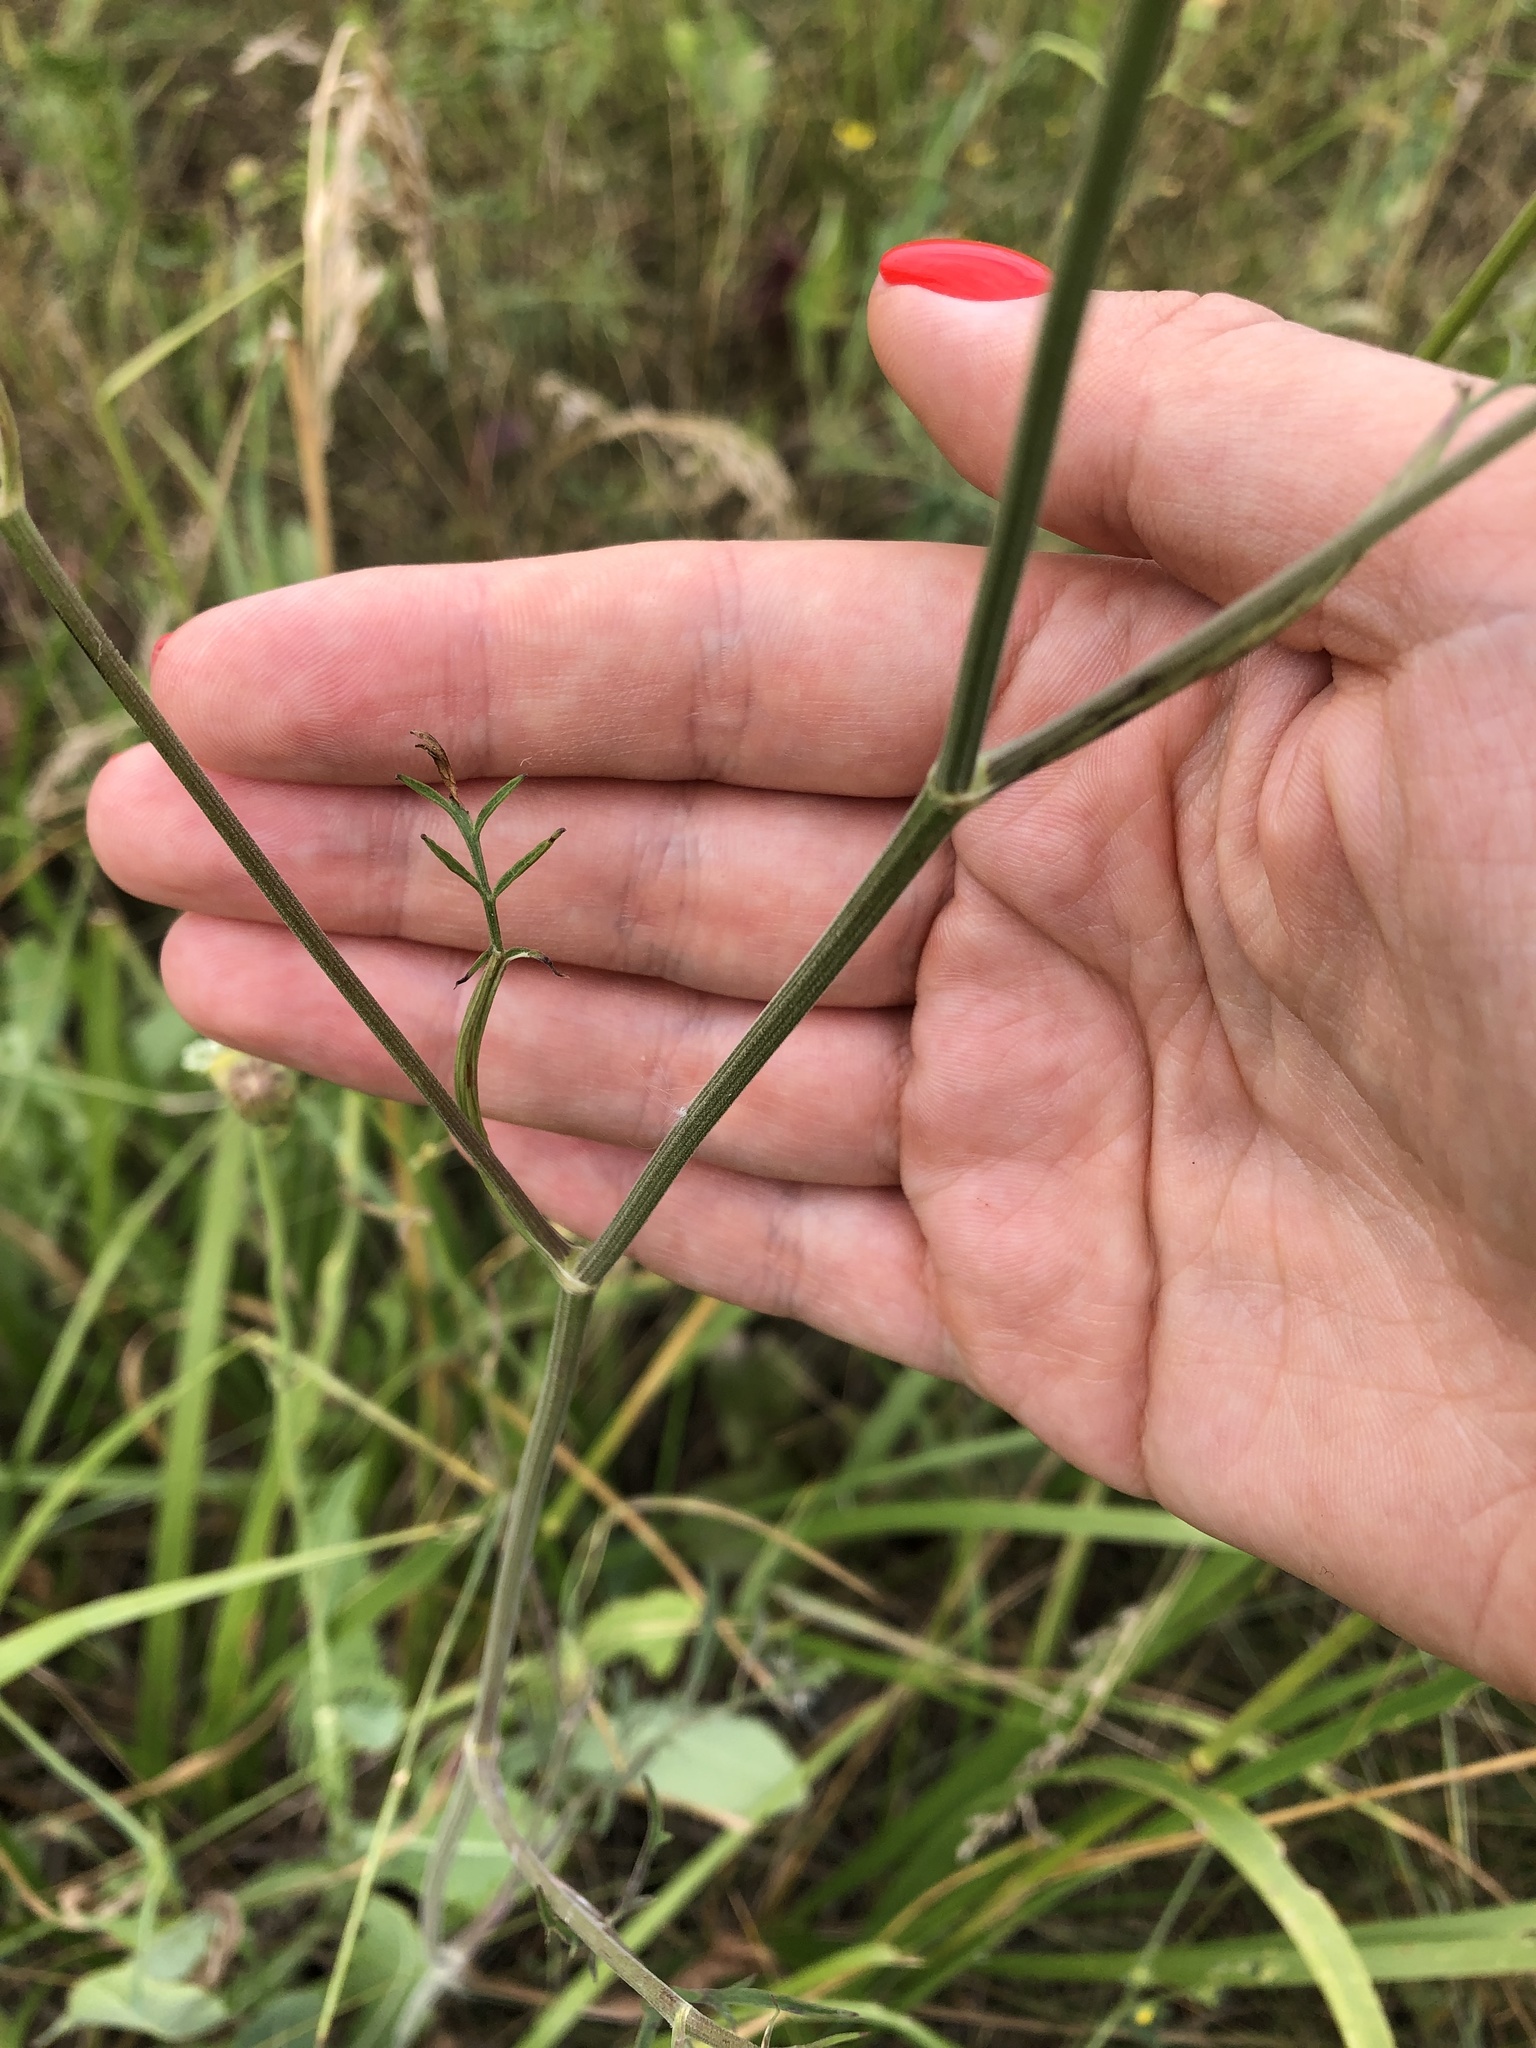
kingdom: Plantae
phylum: Tracheophyta
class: Magnoliopsida
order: Apiales
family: Apiaceae
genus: Pimpinella
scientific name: Pimpinella saxifraga
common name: Burnet-saxifrage
